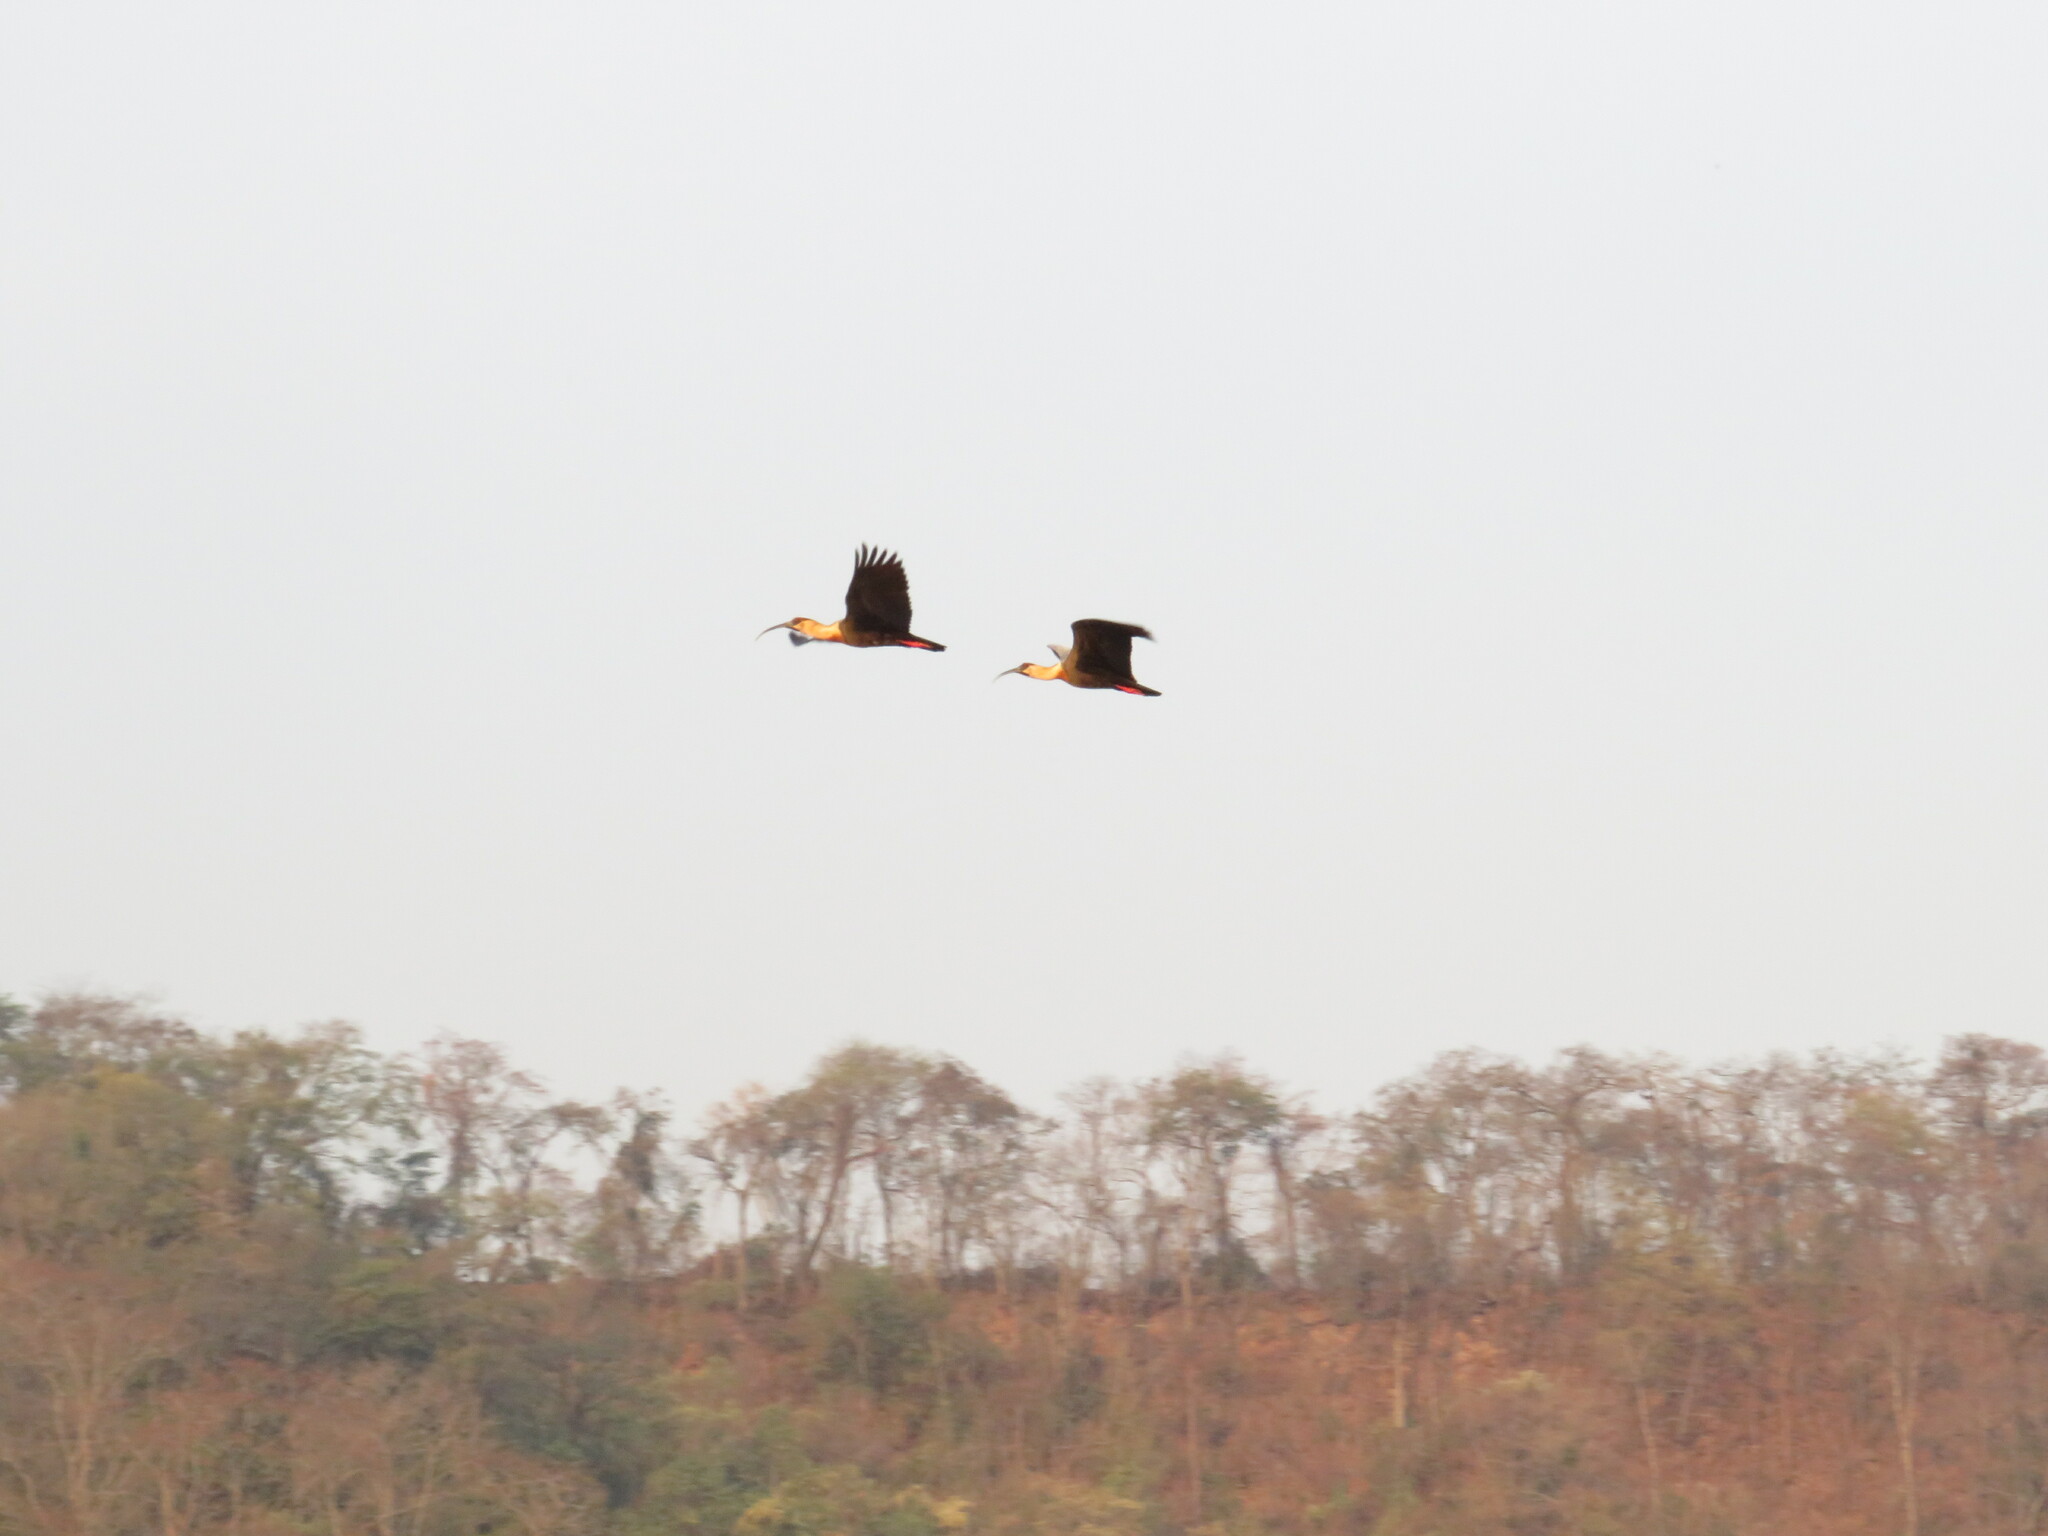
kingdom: Animalia
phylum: Chordata
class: Aves
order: Pelecaniformes
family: Threskiornithidae
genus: Theristicus
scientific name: Theristicus caudatus
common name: Buff-necked ibis
